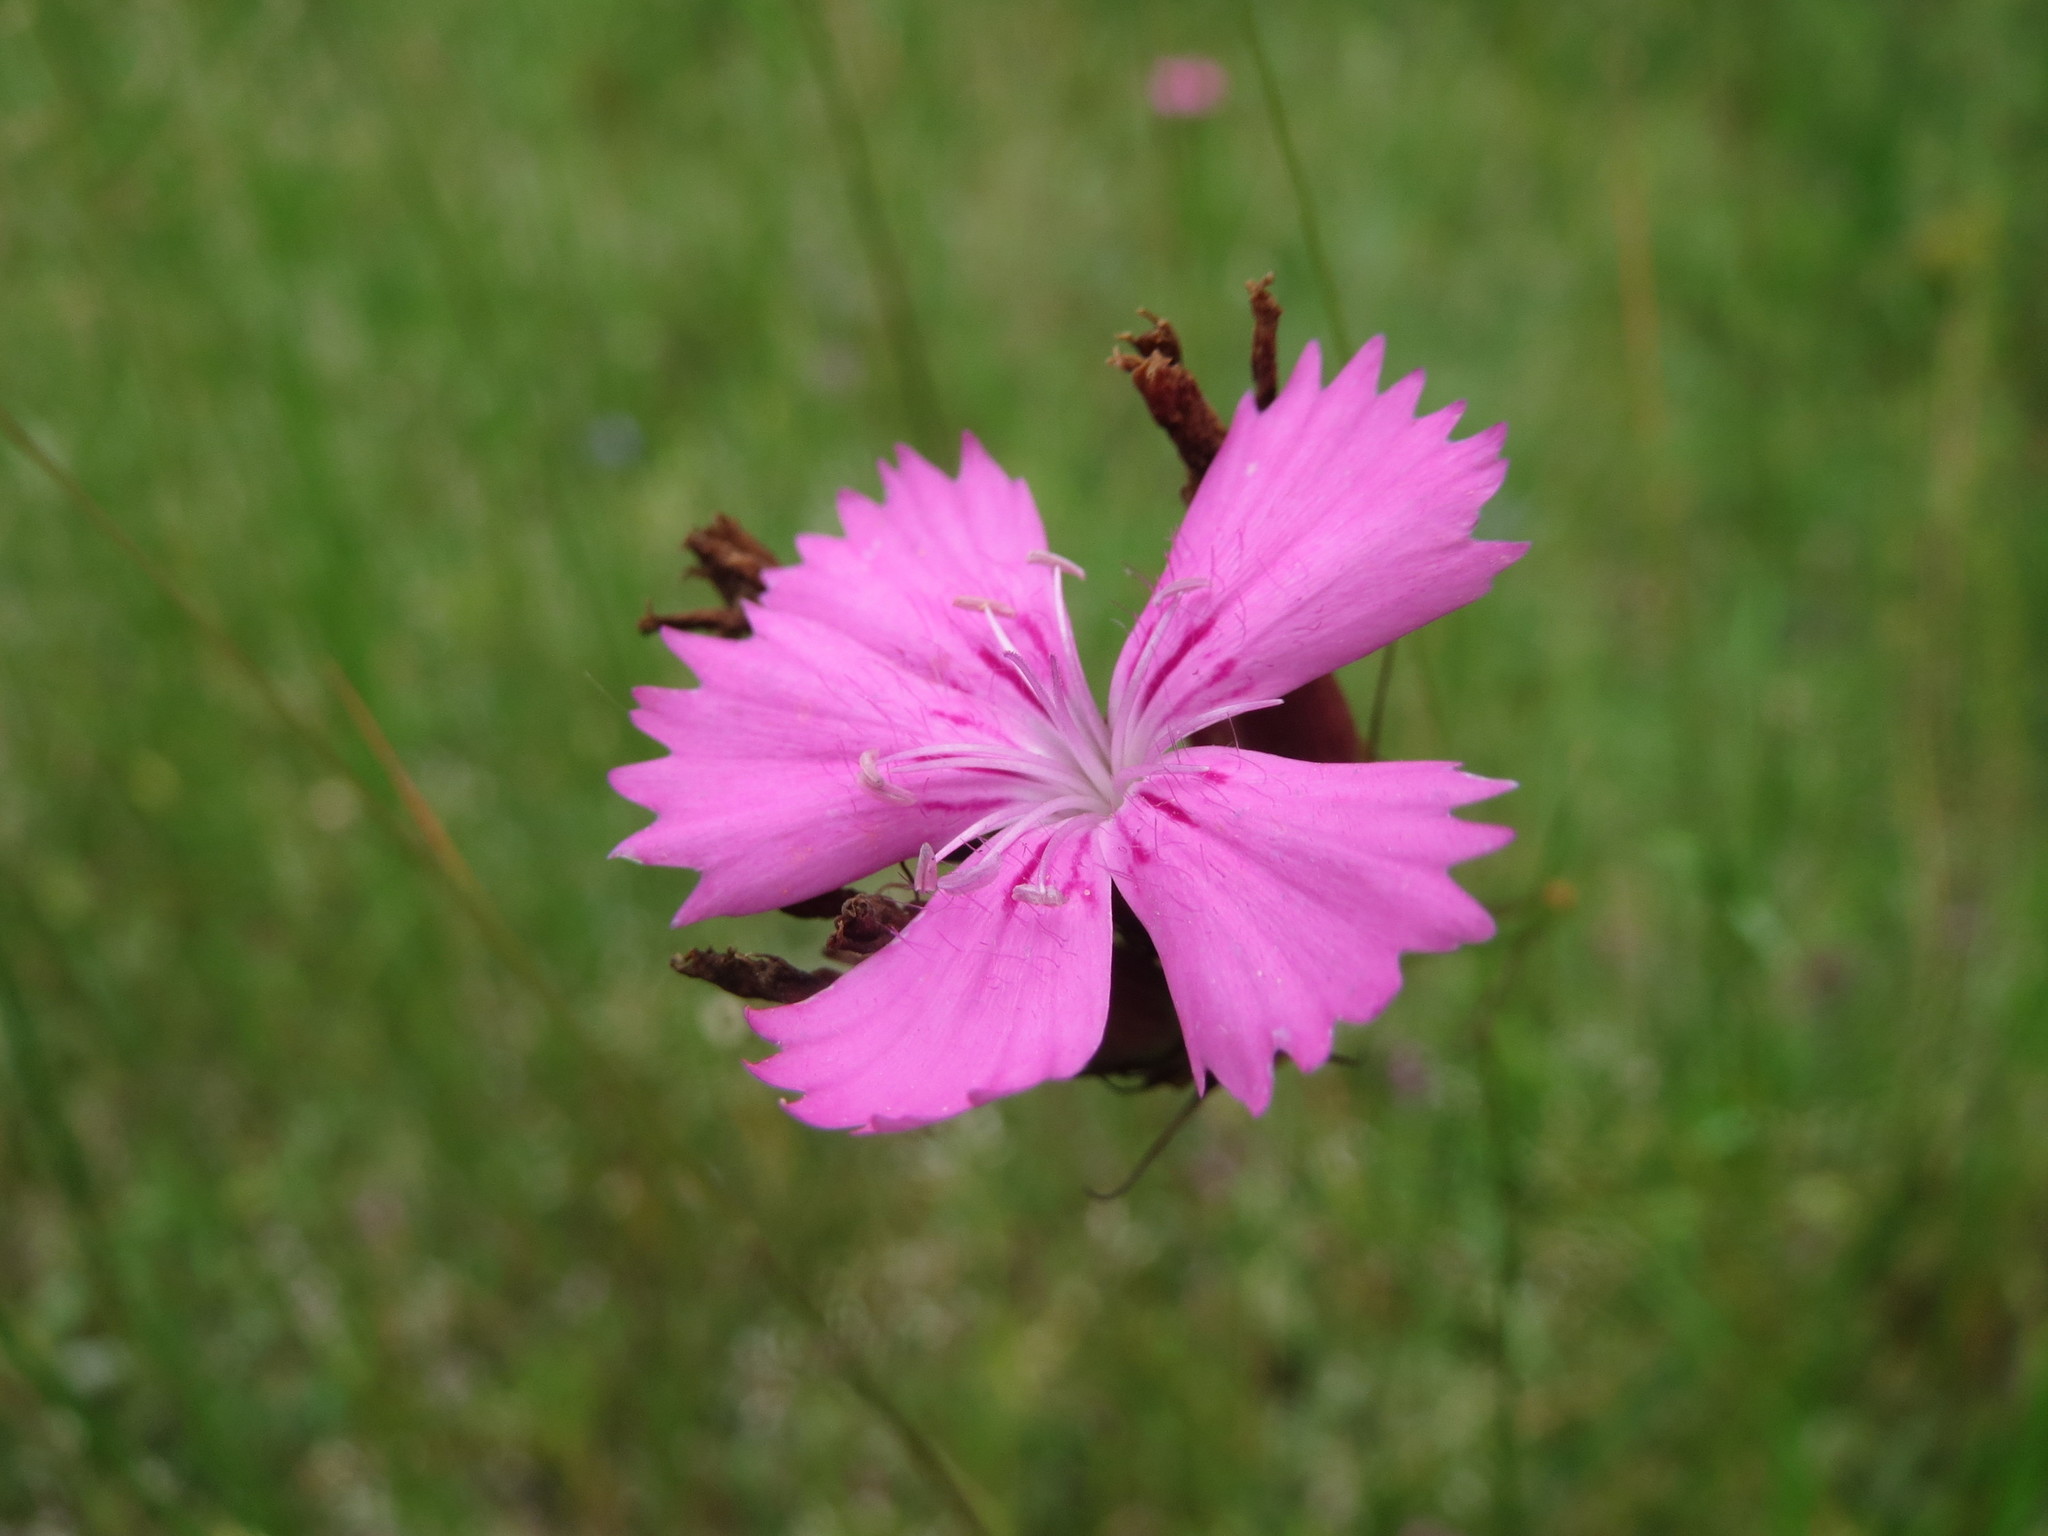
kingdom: Plantae
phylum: Tracheophyta
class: Magnoliopsida
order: Caryophyllales
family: Caryophyllaceae
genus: Dianthus
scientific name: Dianthus carthusianorum
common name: Carthusian pink
